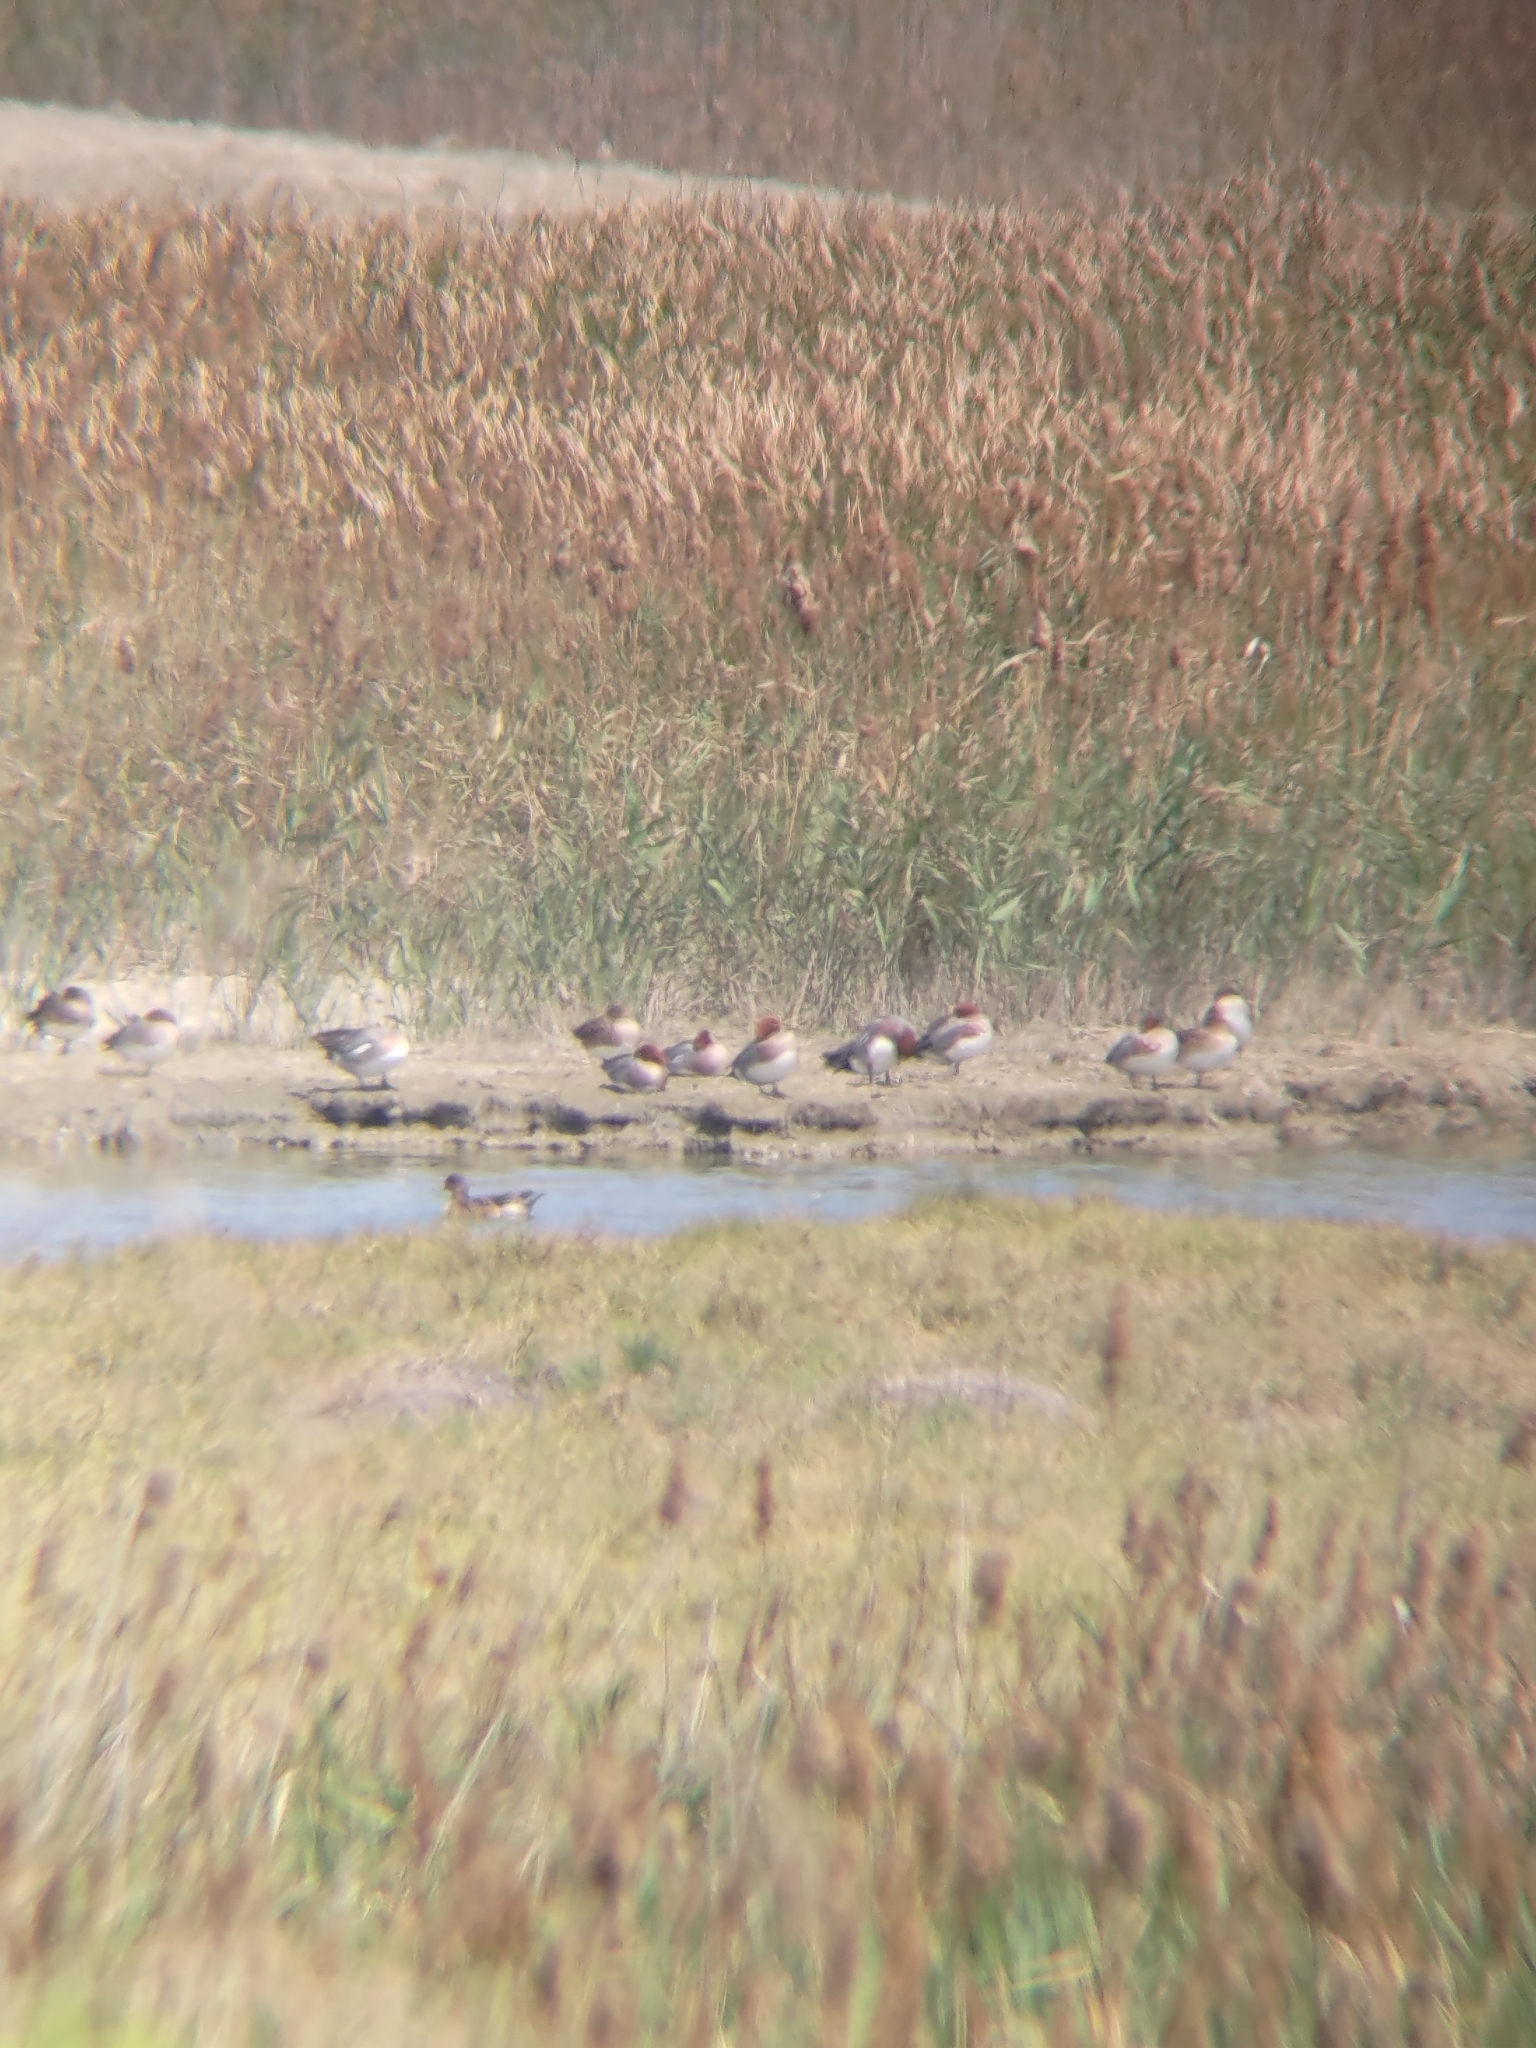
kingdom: Animalia
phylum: Chordata
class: Aves
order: Anseriformes
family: Anatidae
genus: Mareca
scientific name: Mareca penelope
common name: Eurasian wigeon
